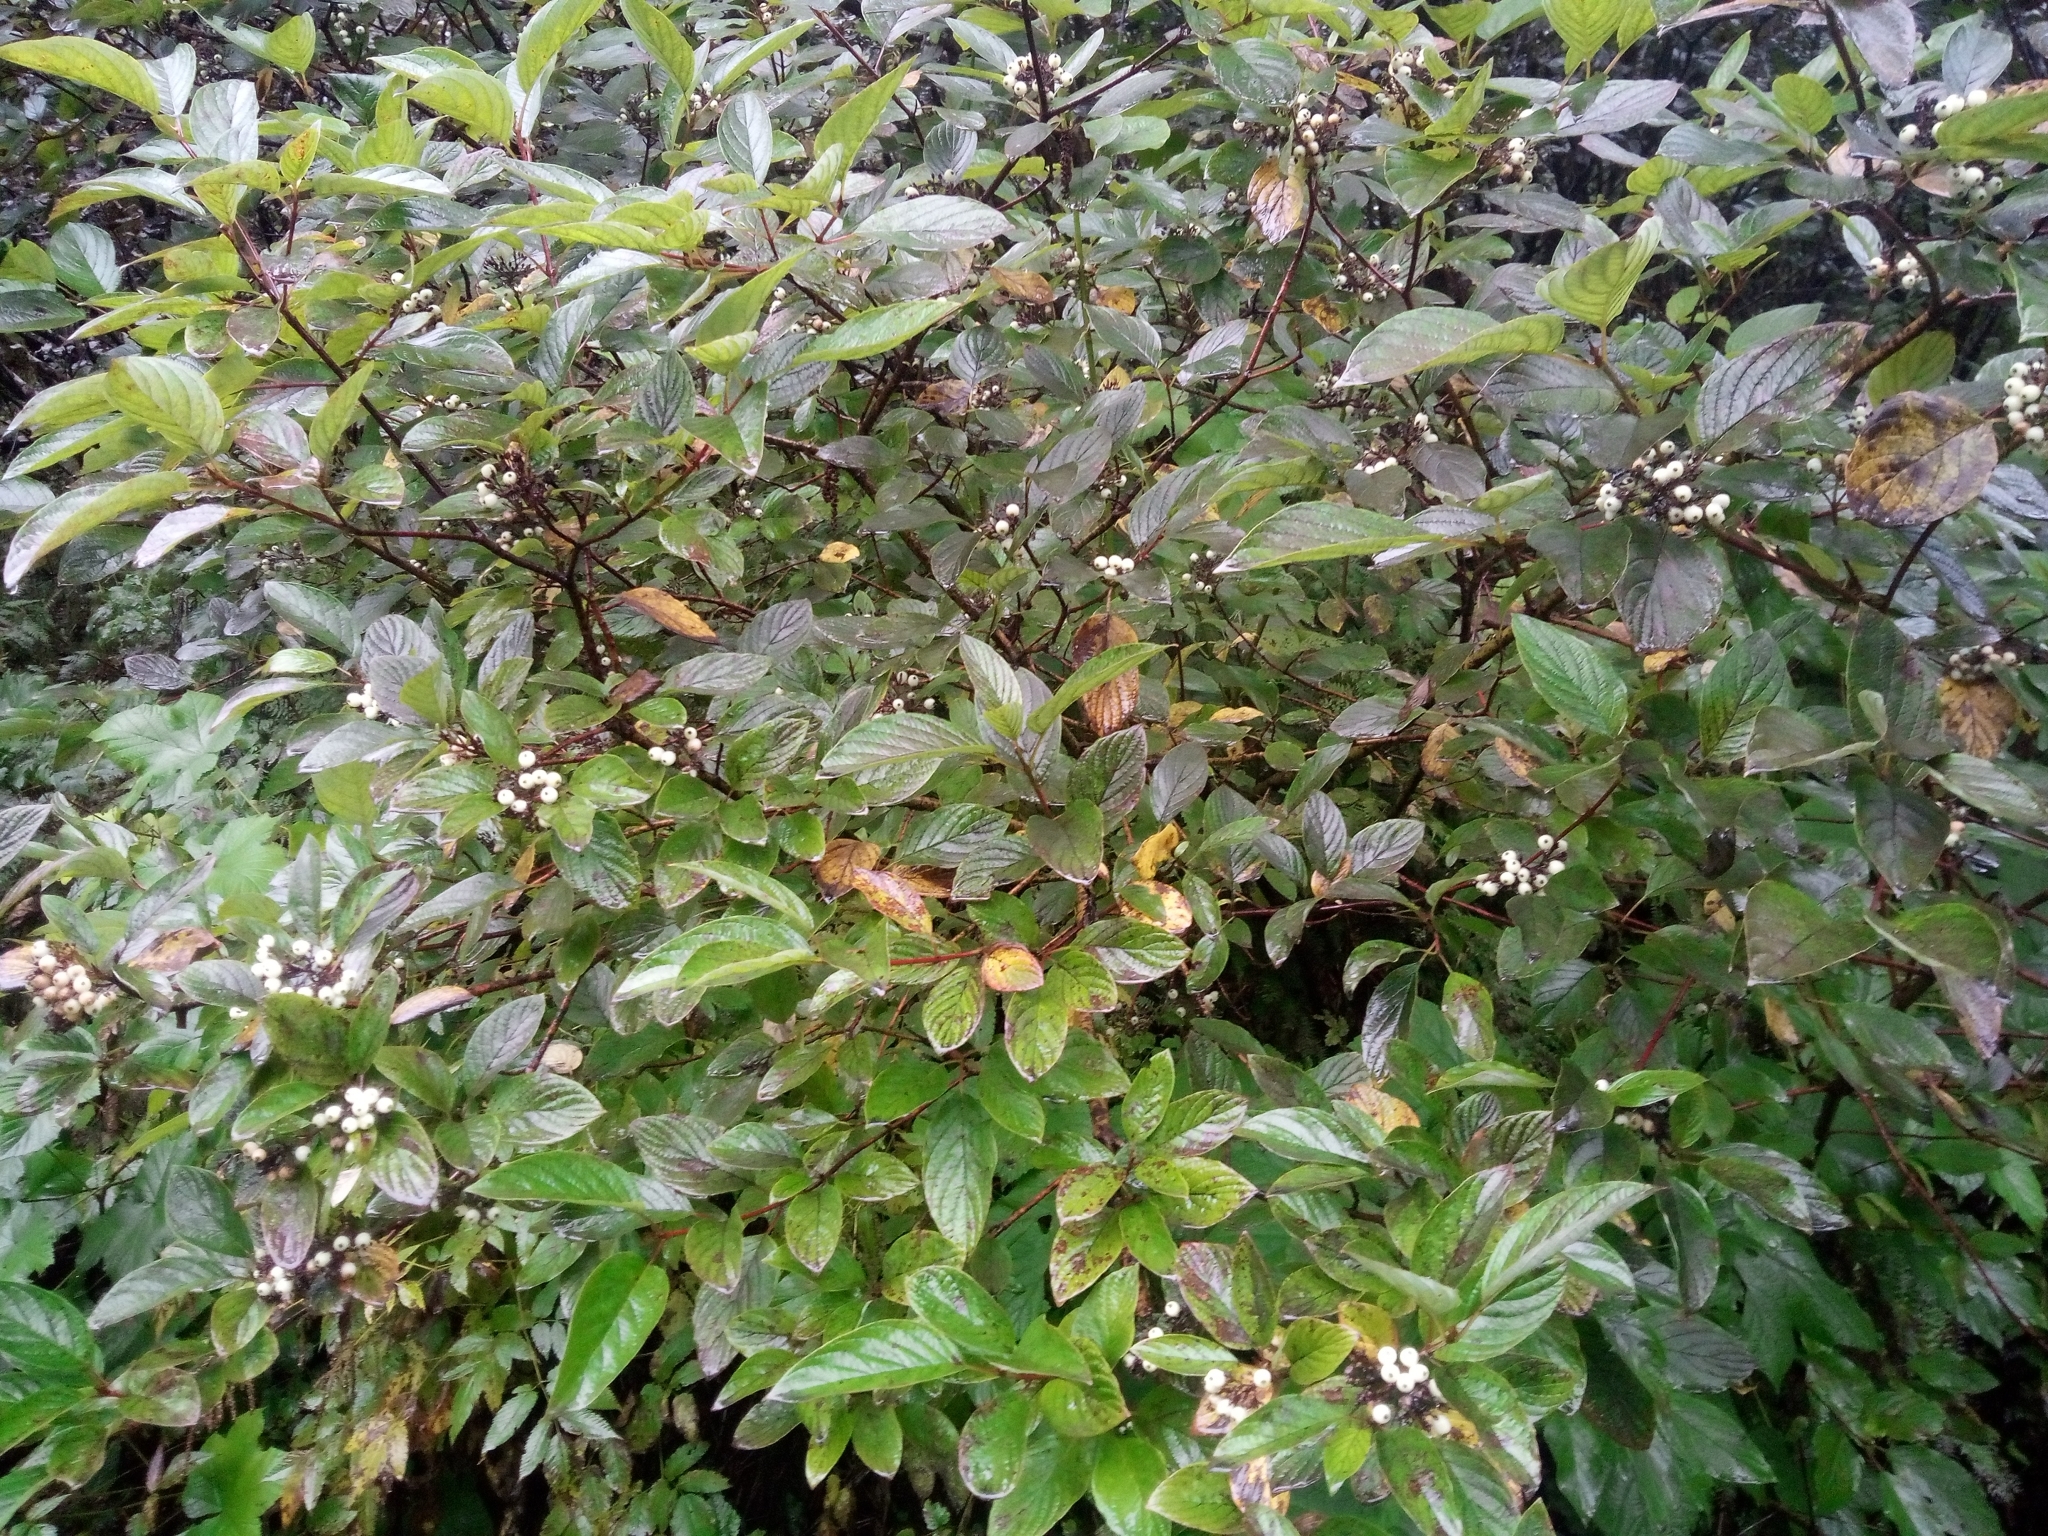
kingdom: Plantae
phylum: Tracheophyta
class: Magnoliopsida
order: Cornales
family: Cornaceae
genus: Cornus
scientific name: Cornus sericea
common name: Red-osier dogwood
